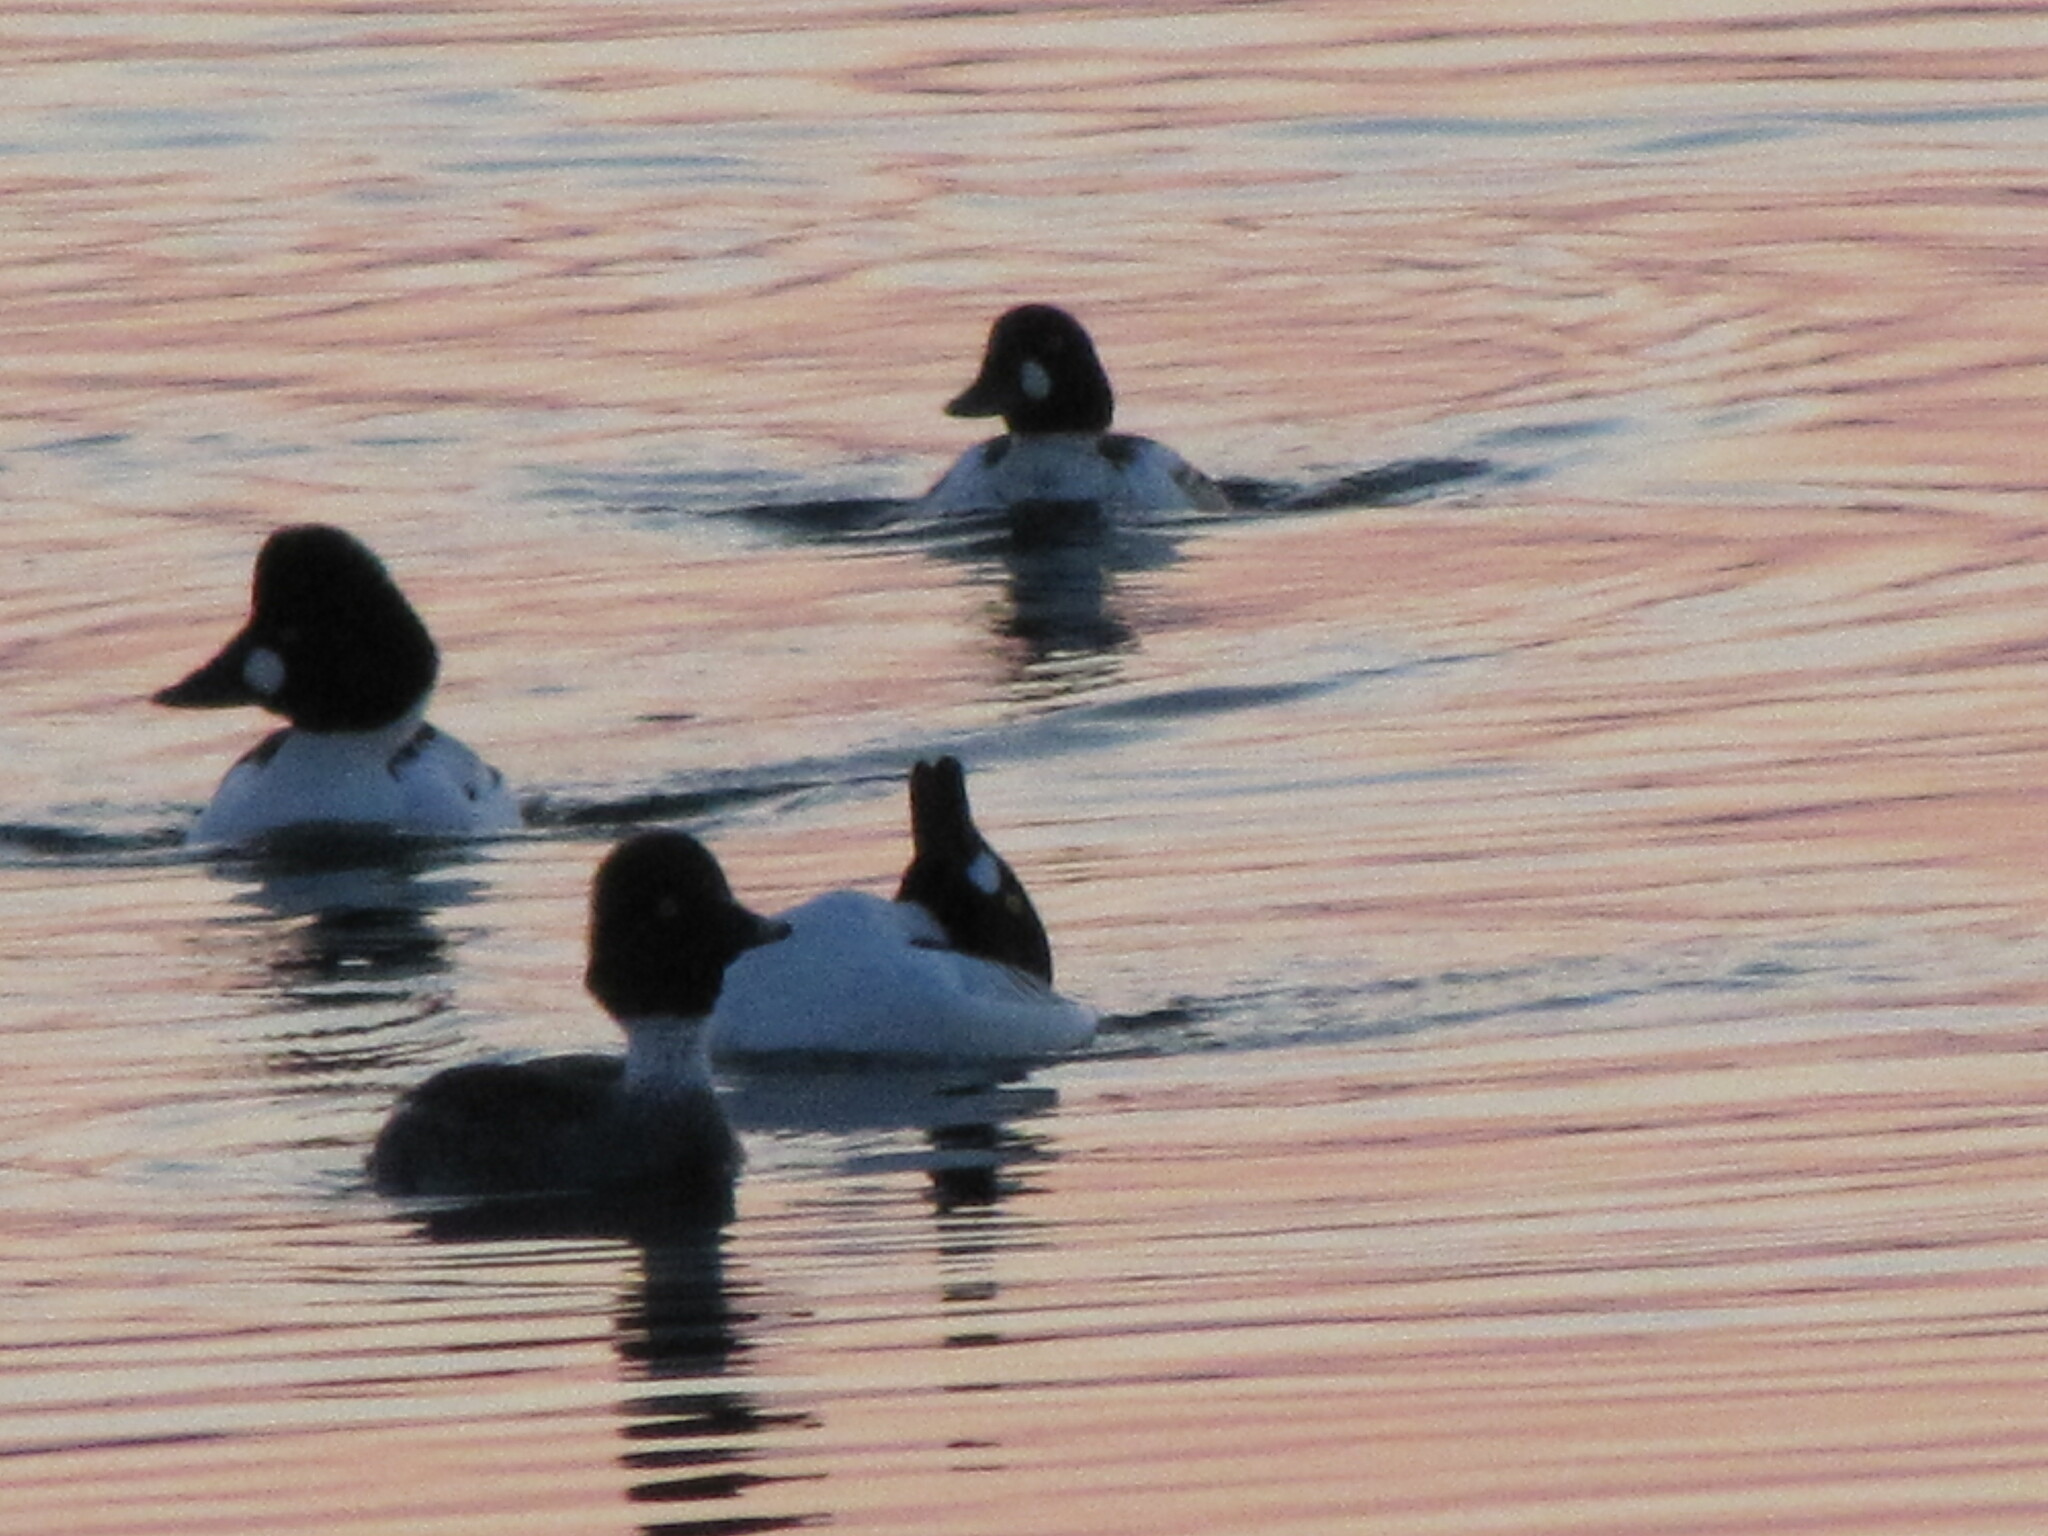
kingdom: Animalia
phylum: Chordata
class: Aves
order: Anseriformes
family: Anatidae
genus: Bucephala
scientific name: Bucephala clangula
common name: Common goldeneye
